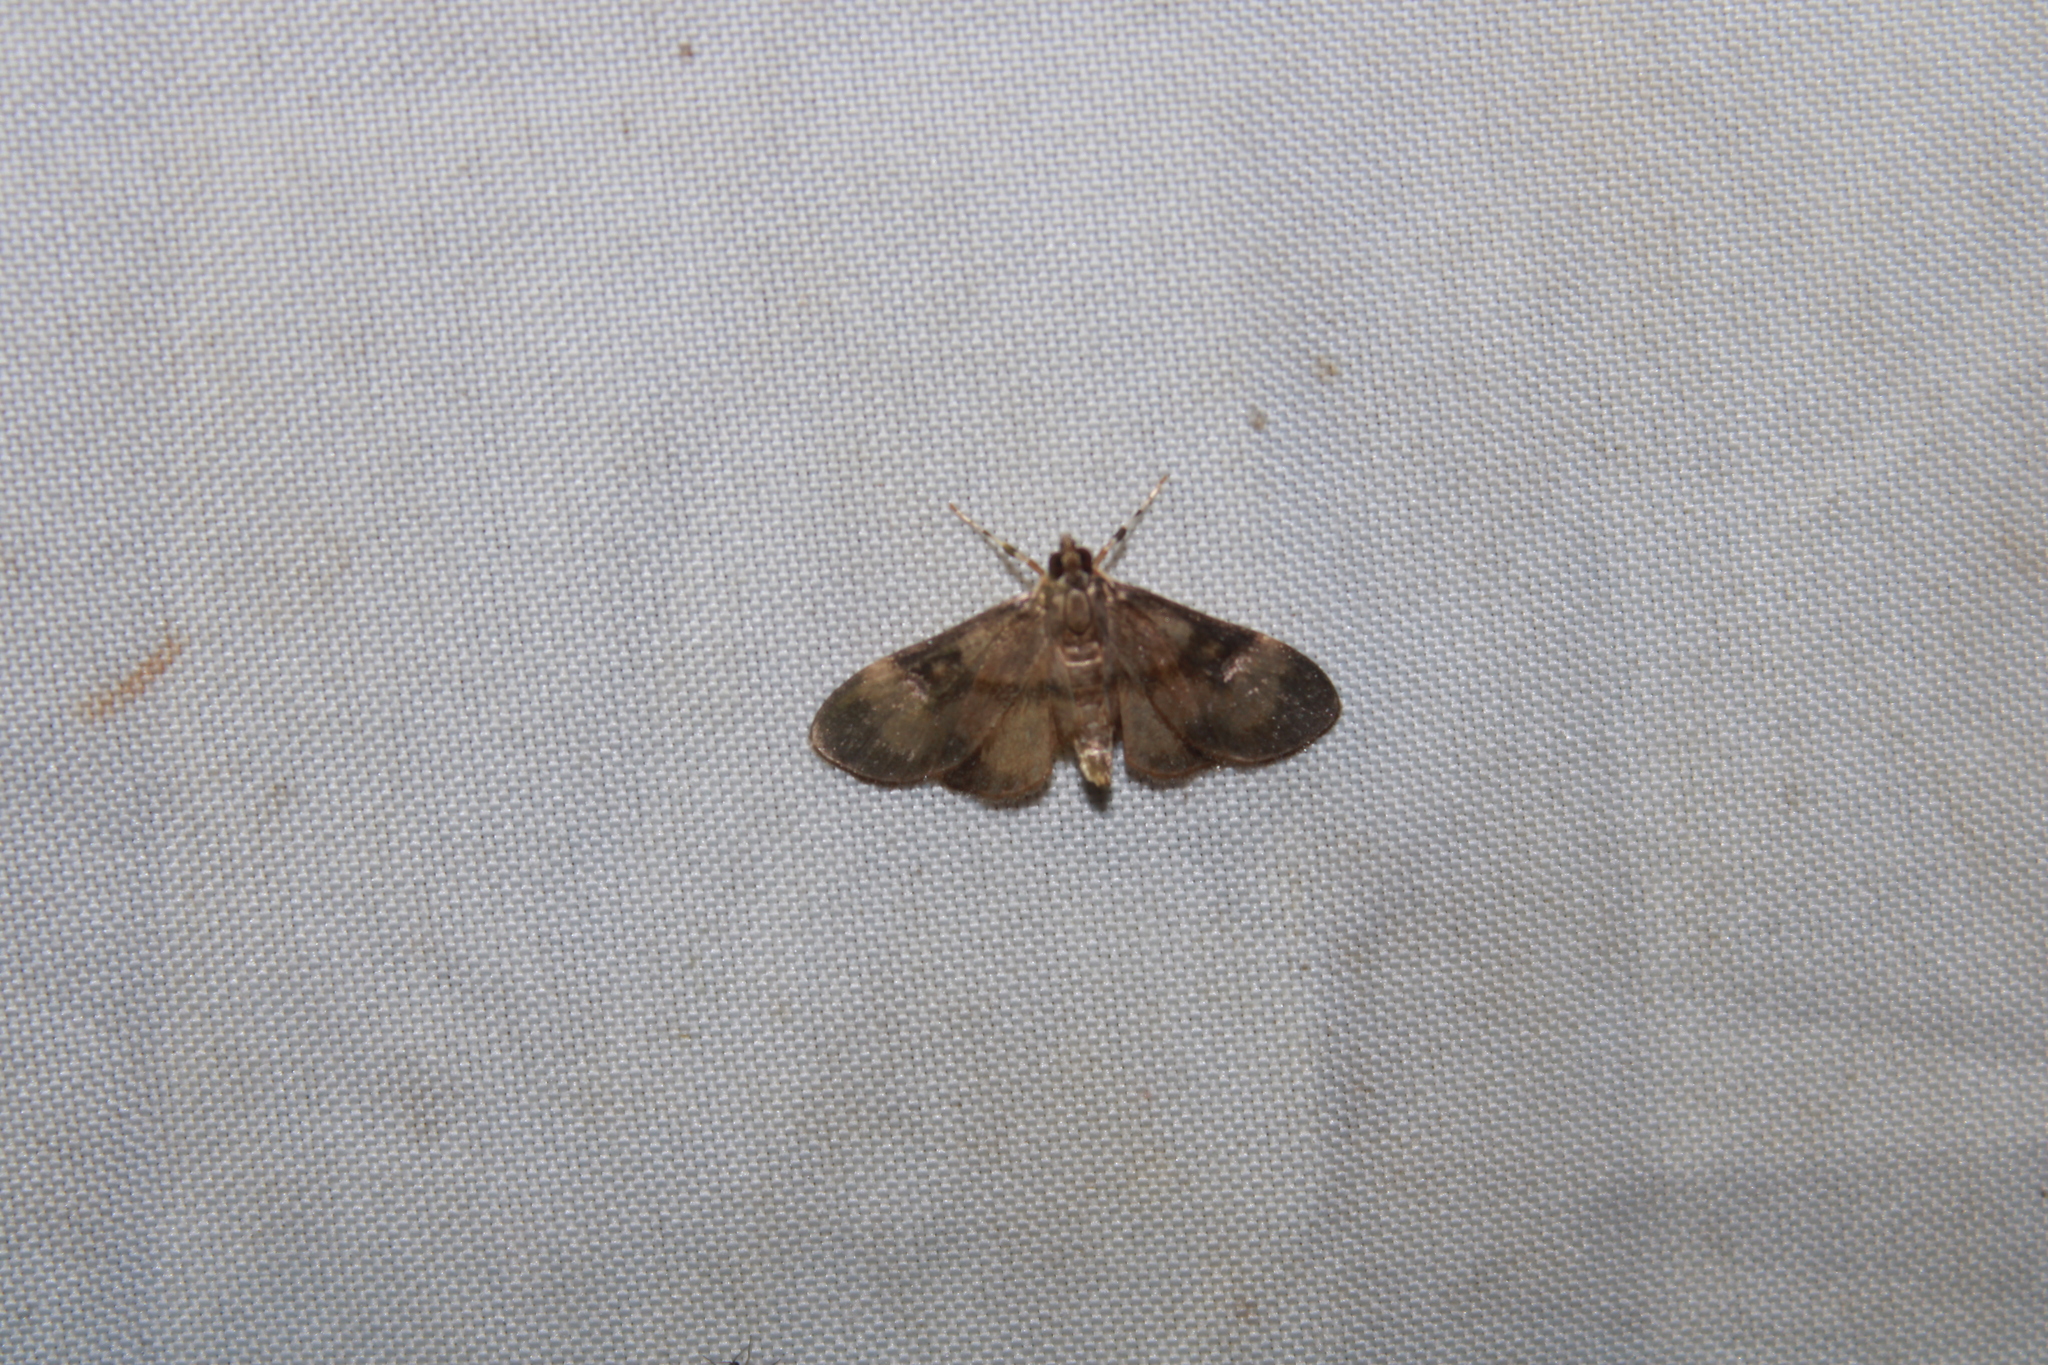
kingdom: Animalia
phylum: Arthropoda
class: Insecta
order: Lepidoptera
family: Crambidae
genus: Lygropia
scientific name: Lygropia fusalis
